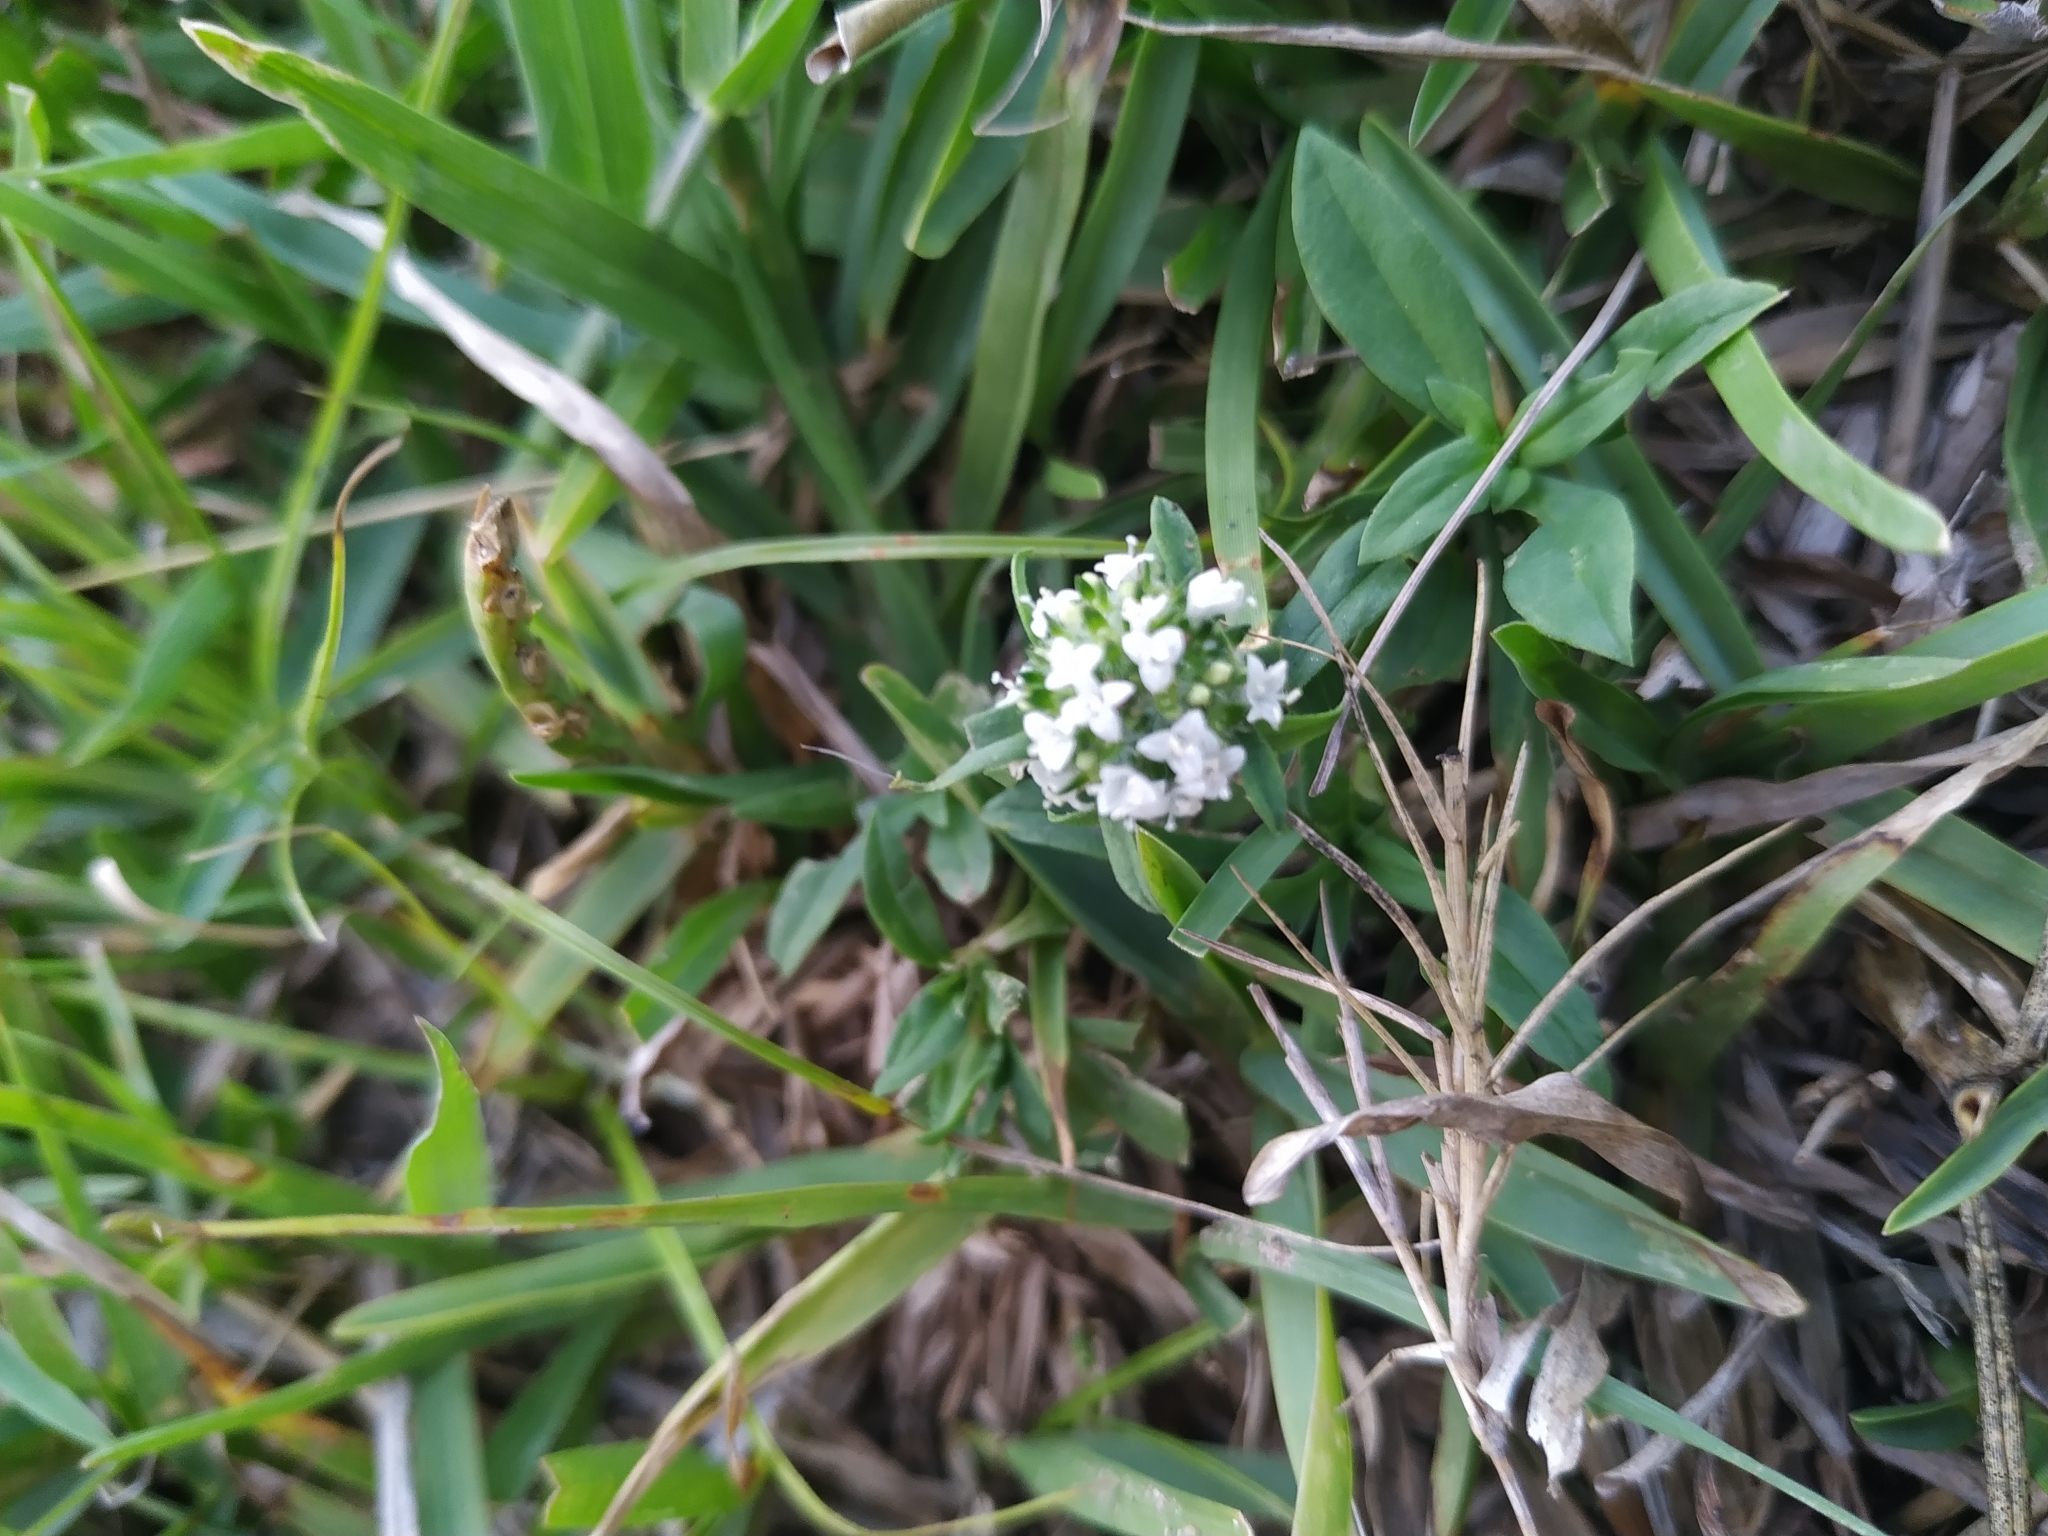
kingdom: Plantae
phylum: Tracheophyta
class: Magnoliopsida
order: Gentianales
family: Rubiaceae
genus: Spermacoce
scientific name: Spermacoce dasycephala
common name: False buttonweed
